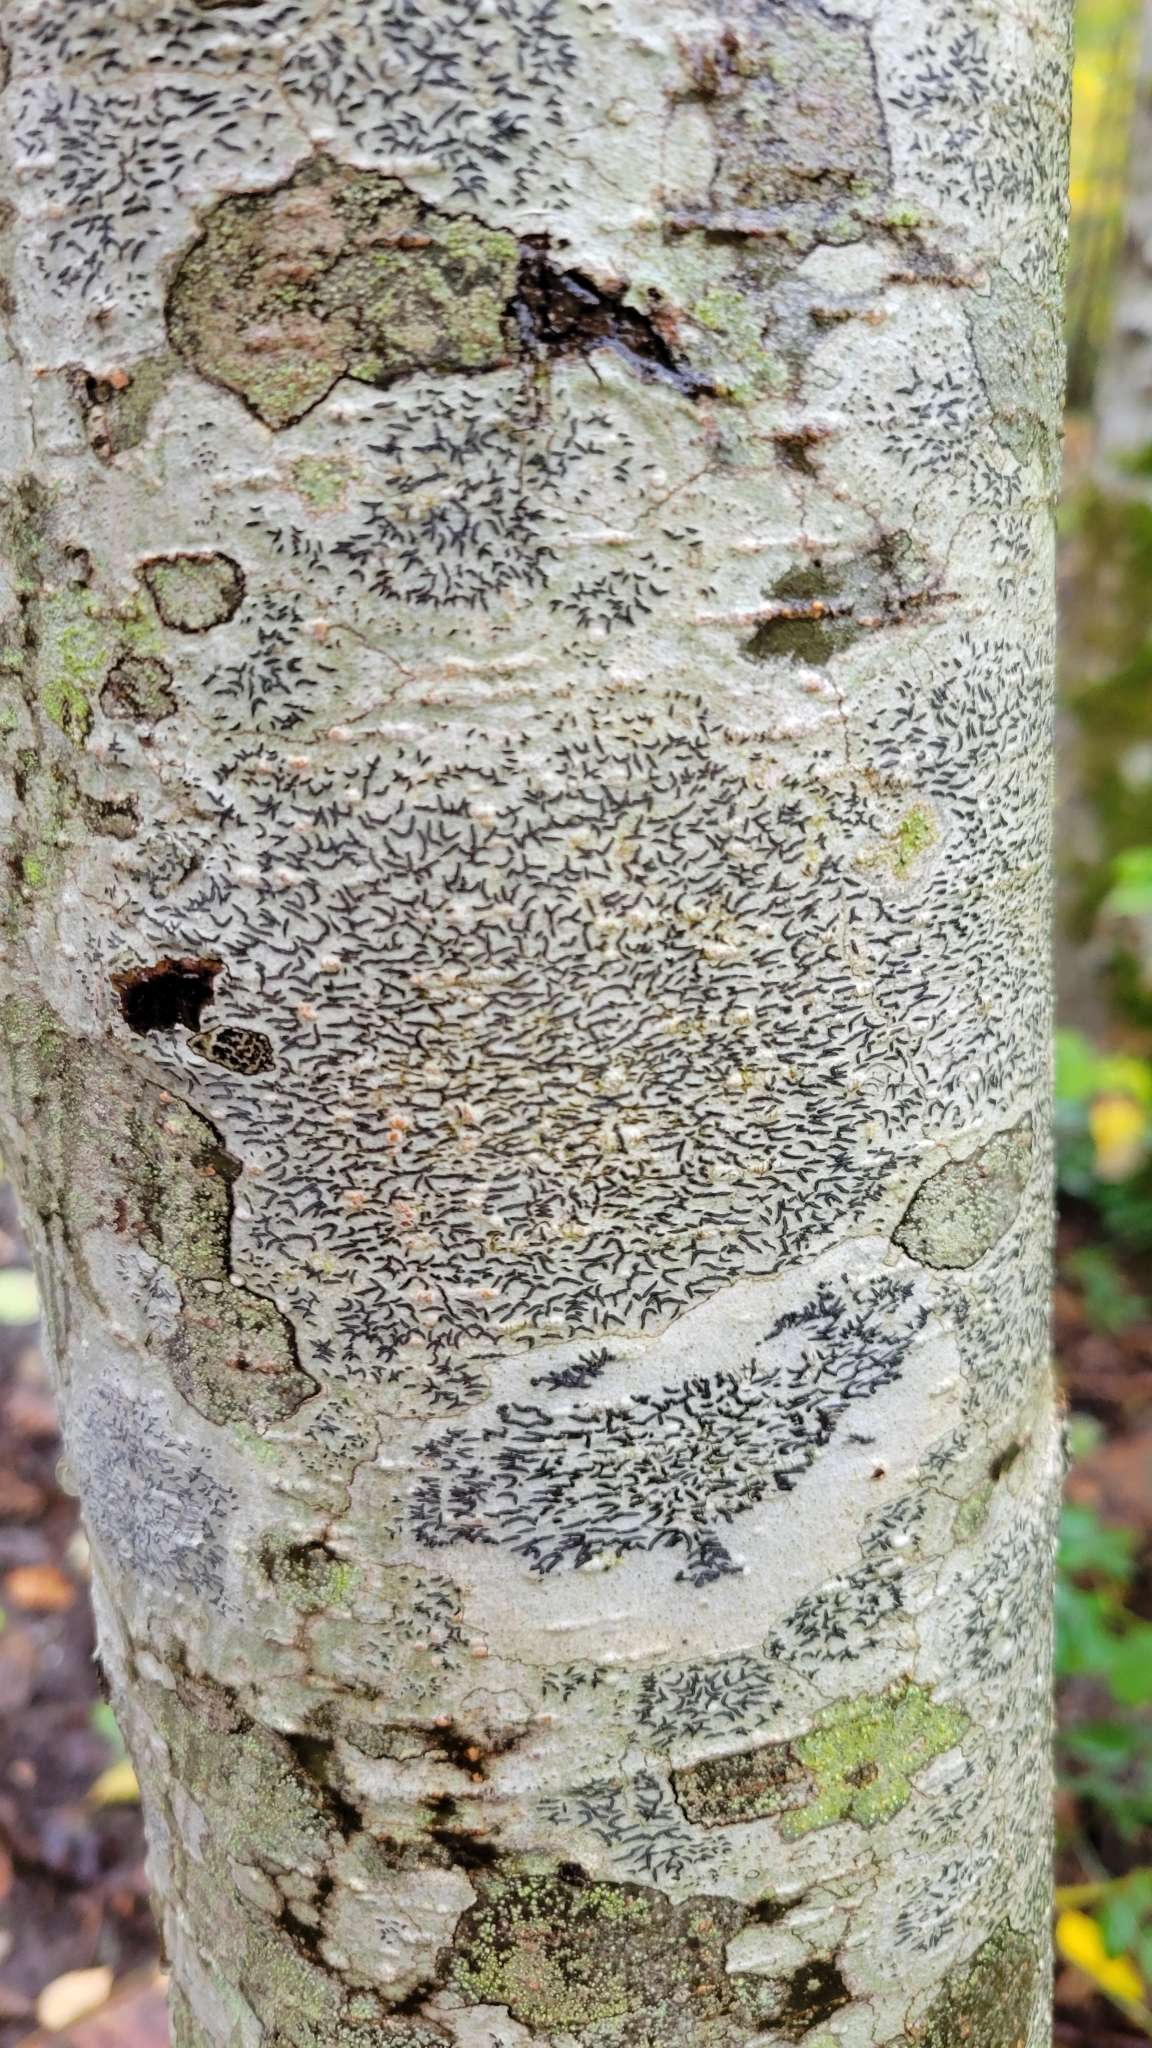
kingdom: Fungi
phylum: Ascomycota
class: Lecanoromycetes
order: Ostropales
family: Graphidaceae
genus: Graphis
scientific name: Graphis scripta
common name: Script lichen
